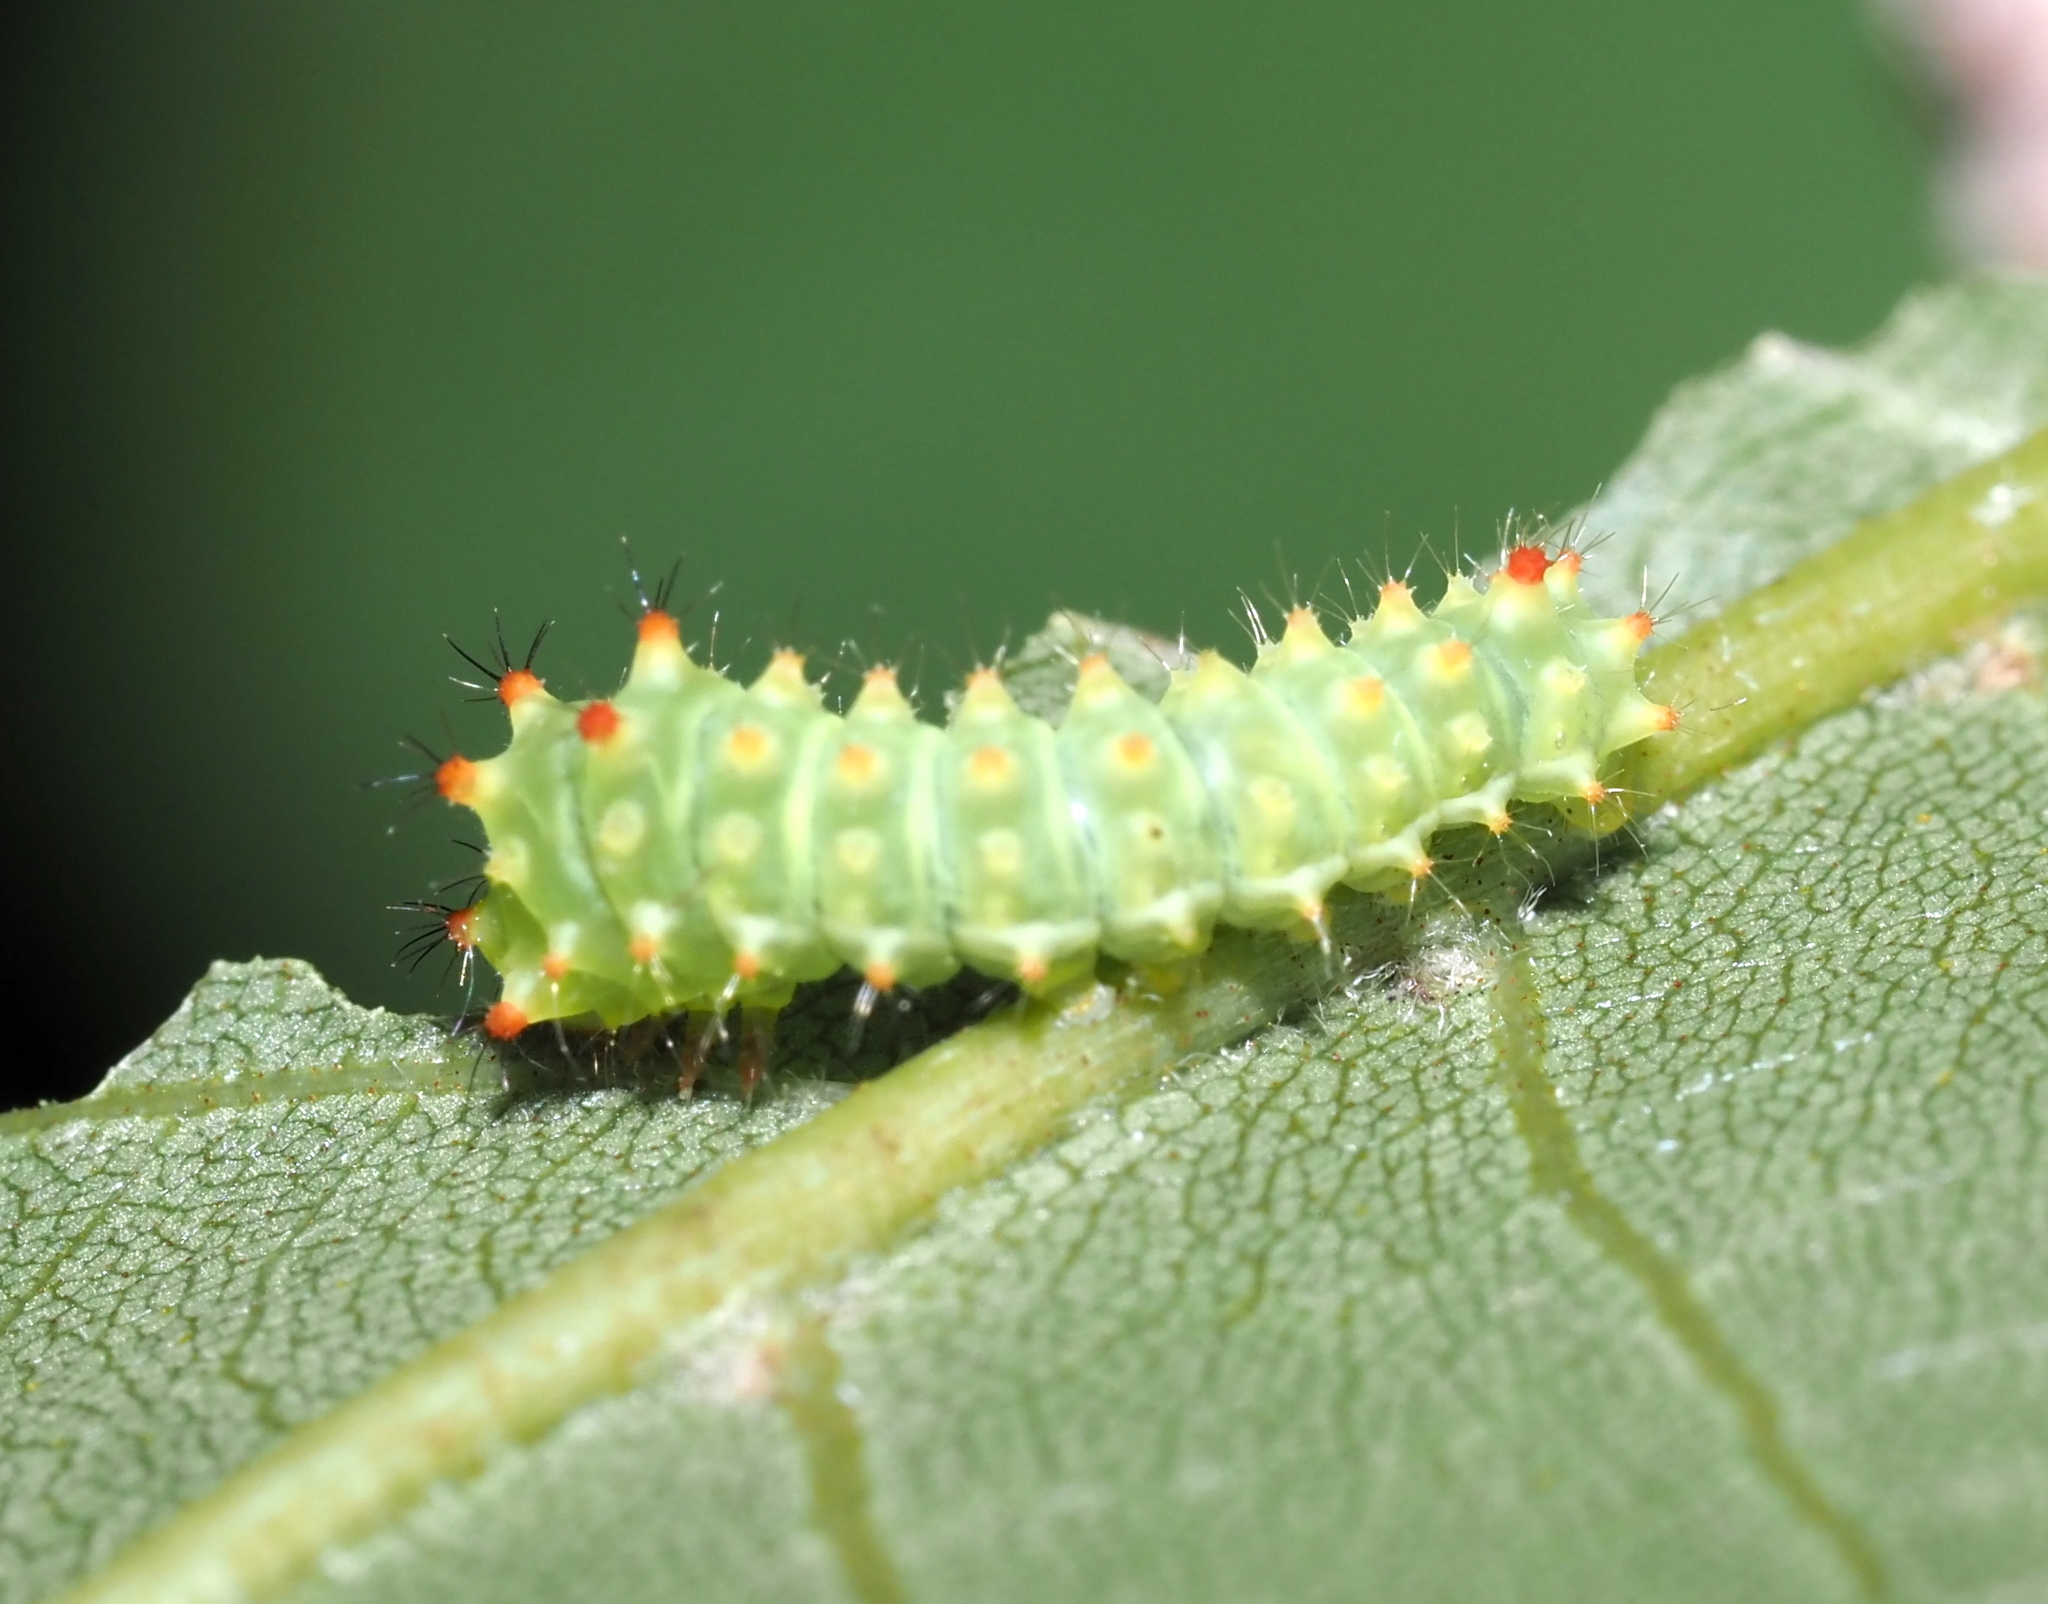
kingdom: Animalia
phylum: Arthropoda
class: Insecta
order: Lepidoptera
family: Saturniidae
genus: Actias
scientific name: Actias luna
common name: Luna moth
